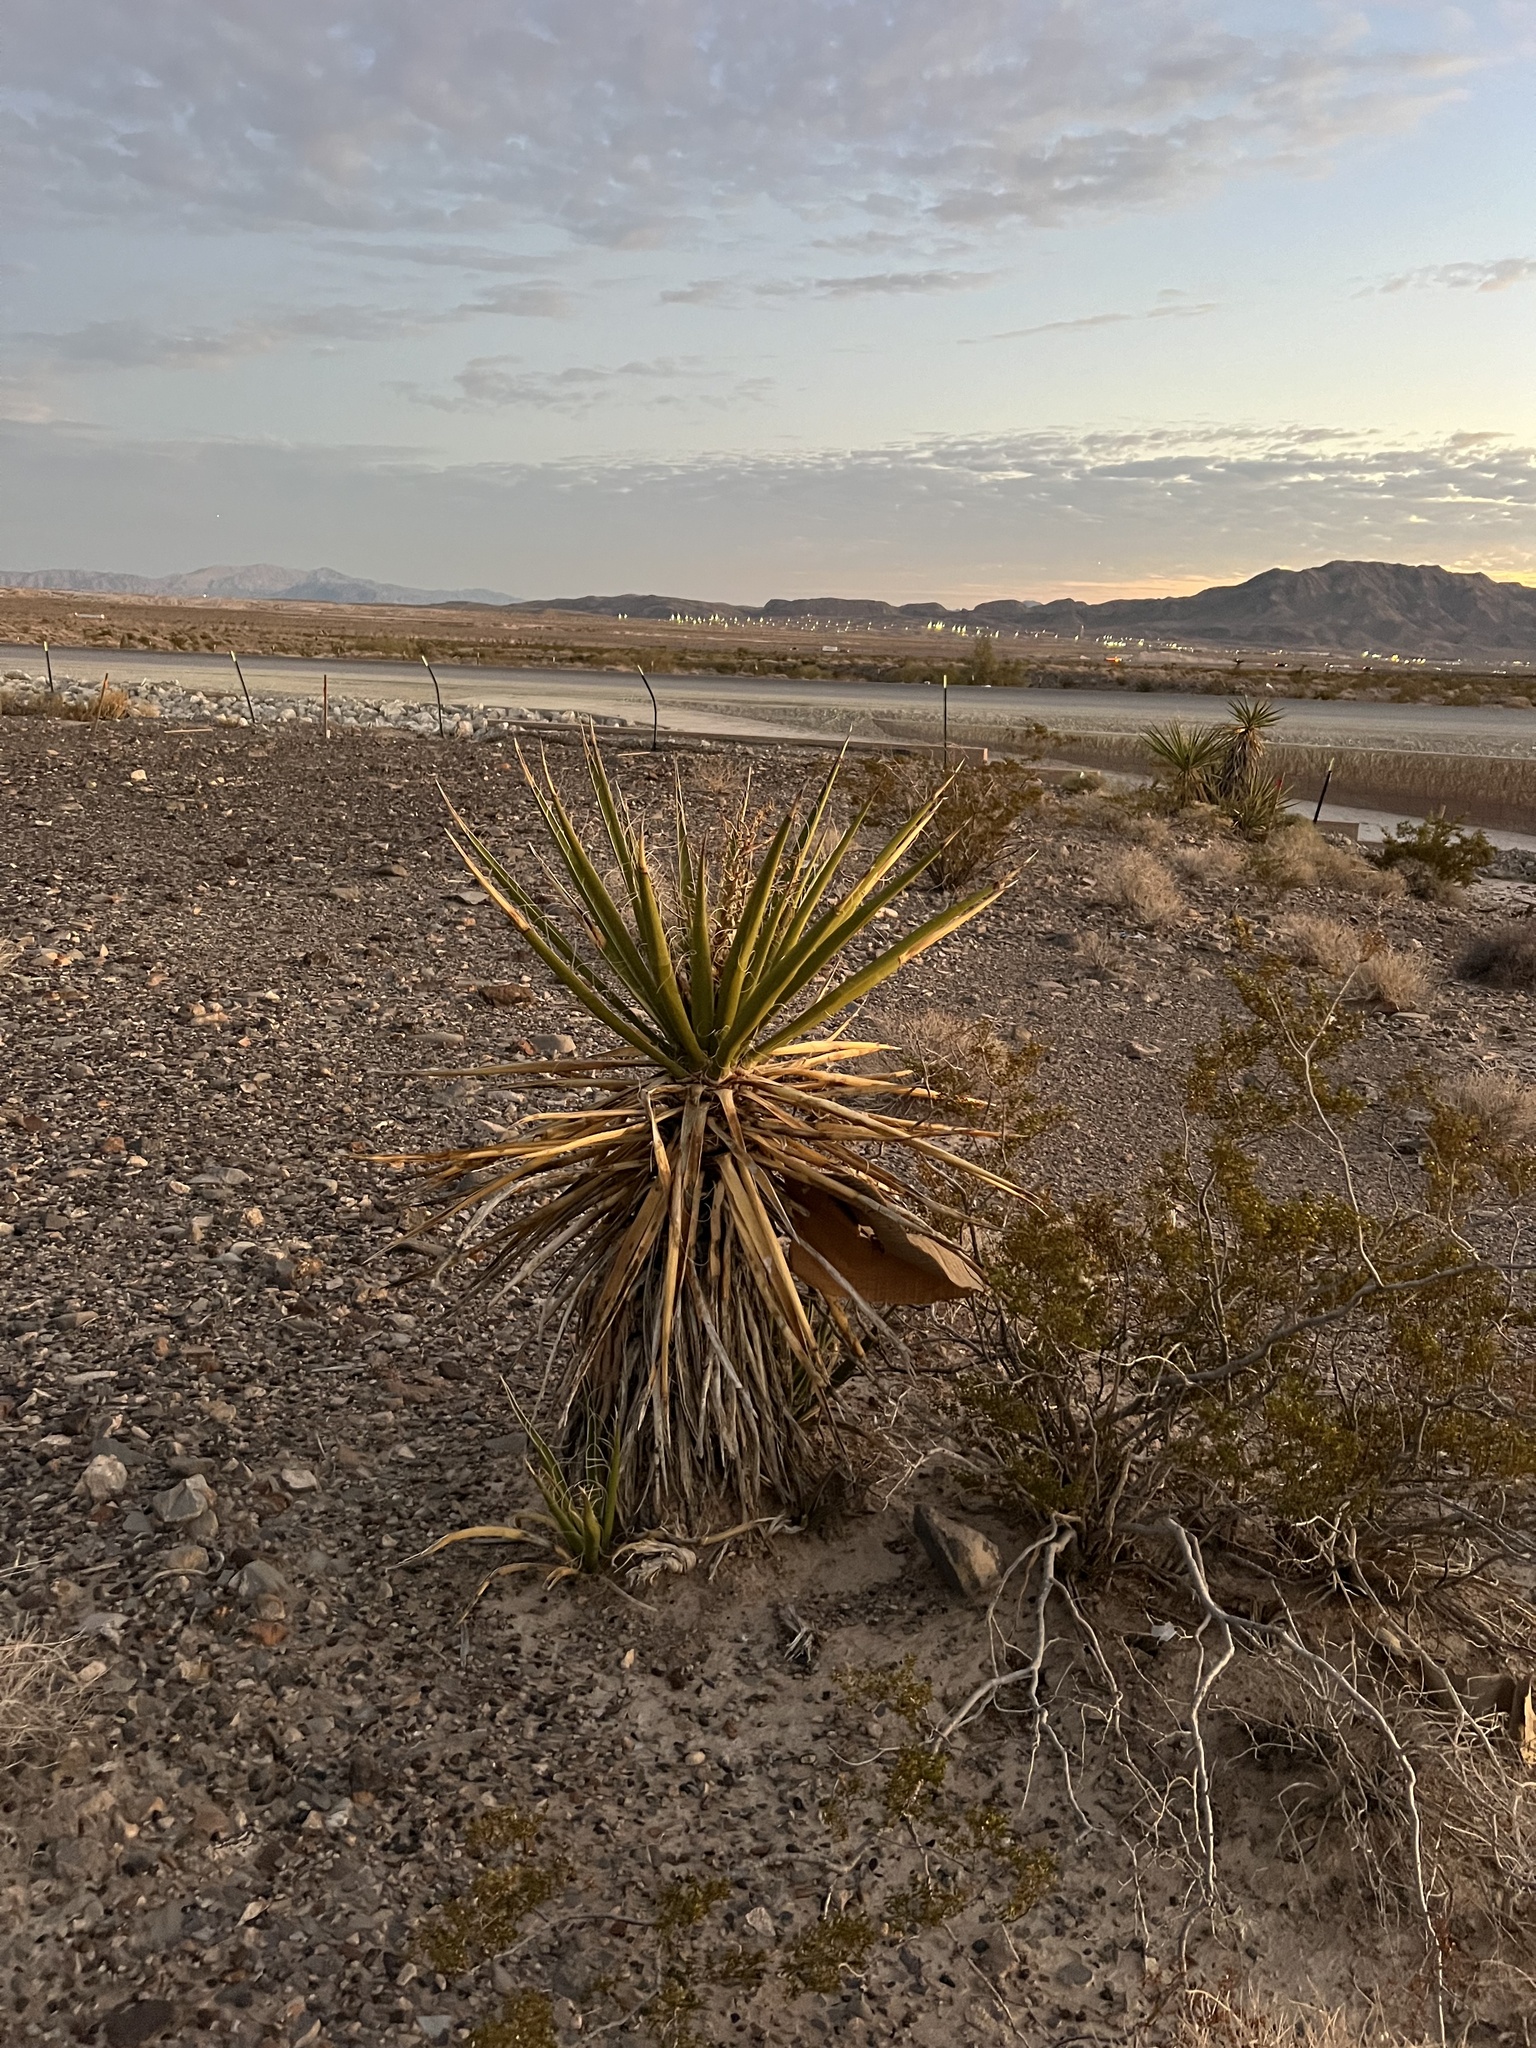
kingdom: Plantae
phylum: Tracheophyta
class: Liliopsida
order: Asparagales
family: Asparagaceae
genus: Yucca
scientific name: Yucca schidigera
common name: Mojave yucca
